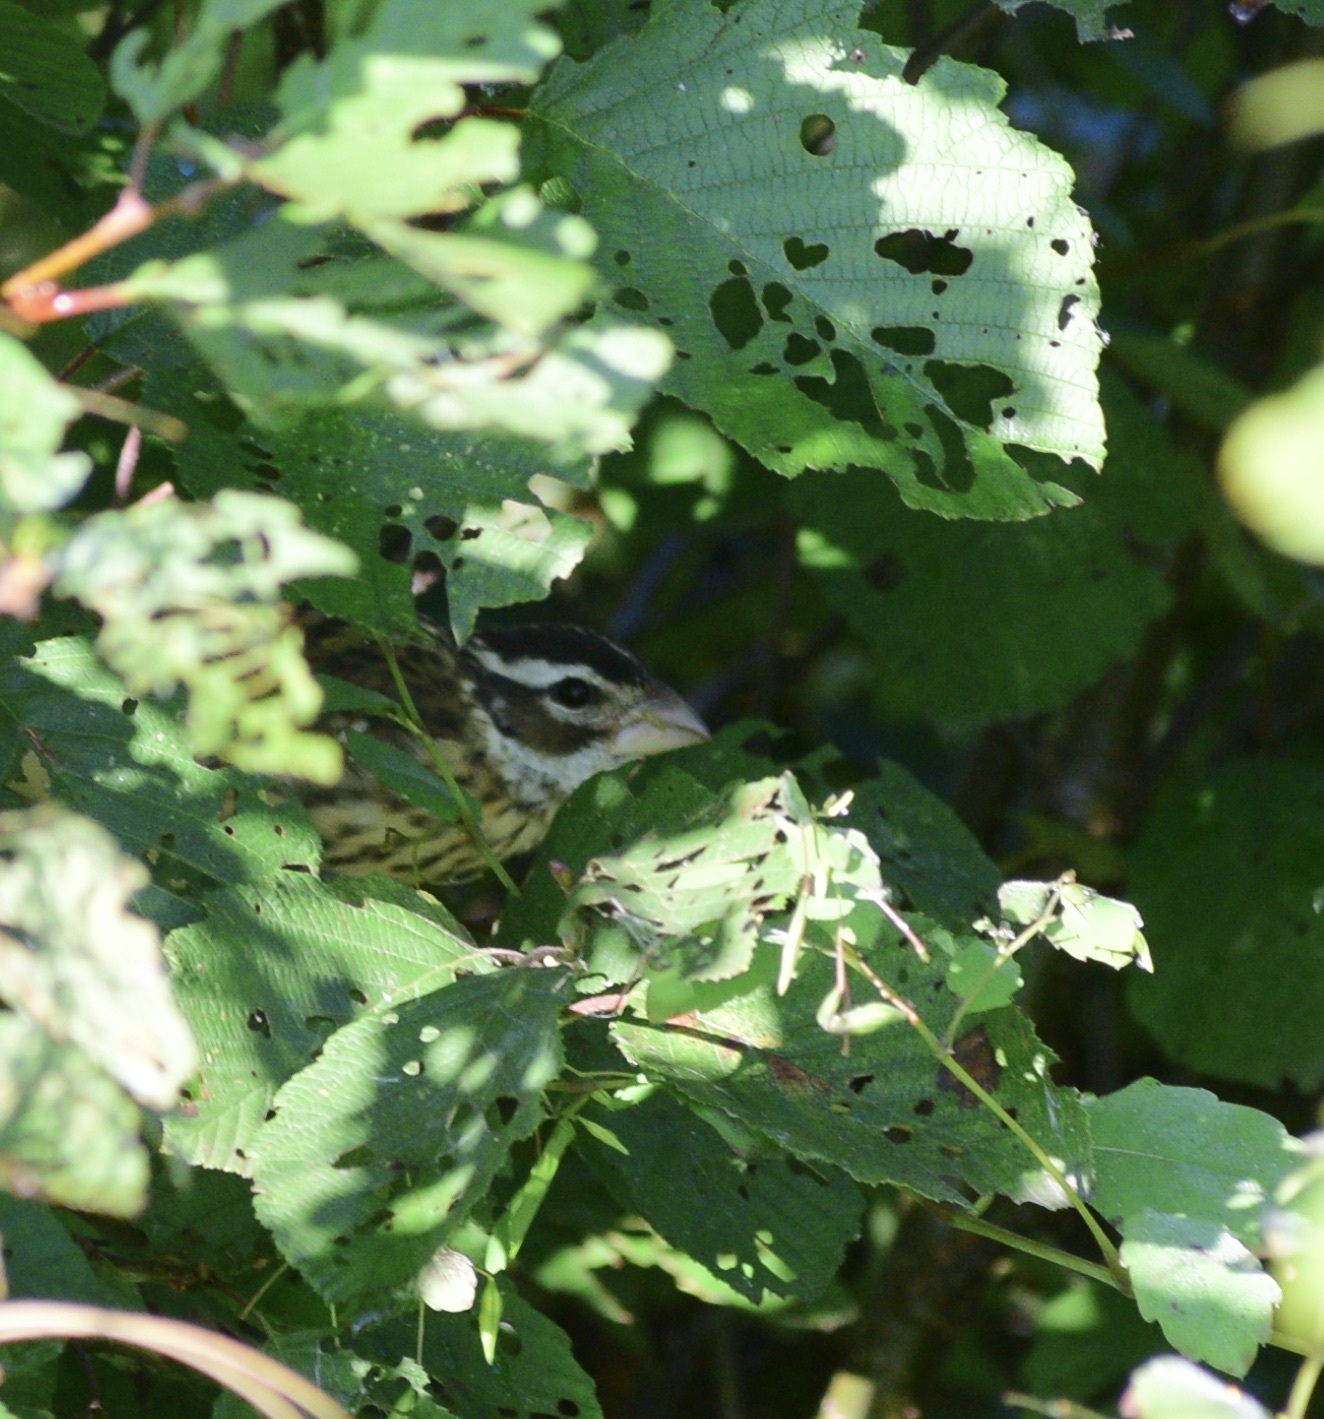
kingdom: Animalia
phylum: Chordata
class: Aves
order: Passeriformes
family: Cardinalidae
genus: Pheucticus
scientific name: Pheucticus ludovicianus
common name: Rose-breasted grosbeak
